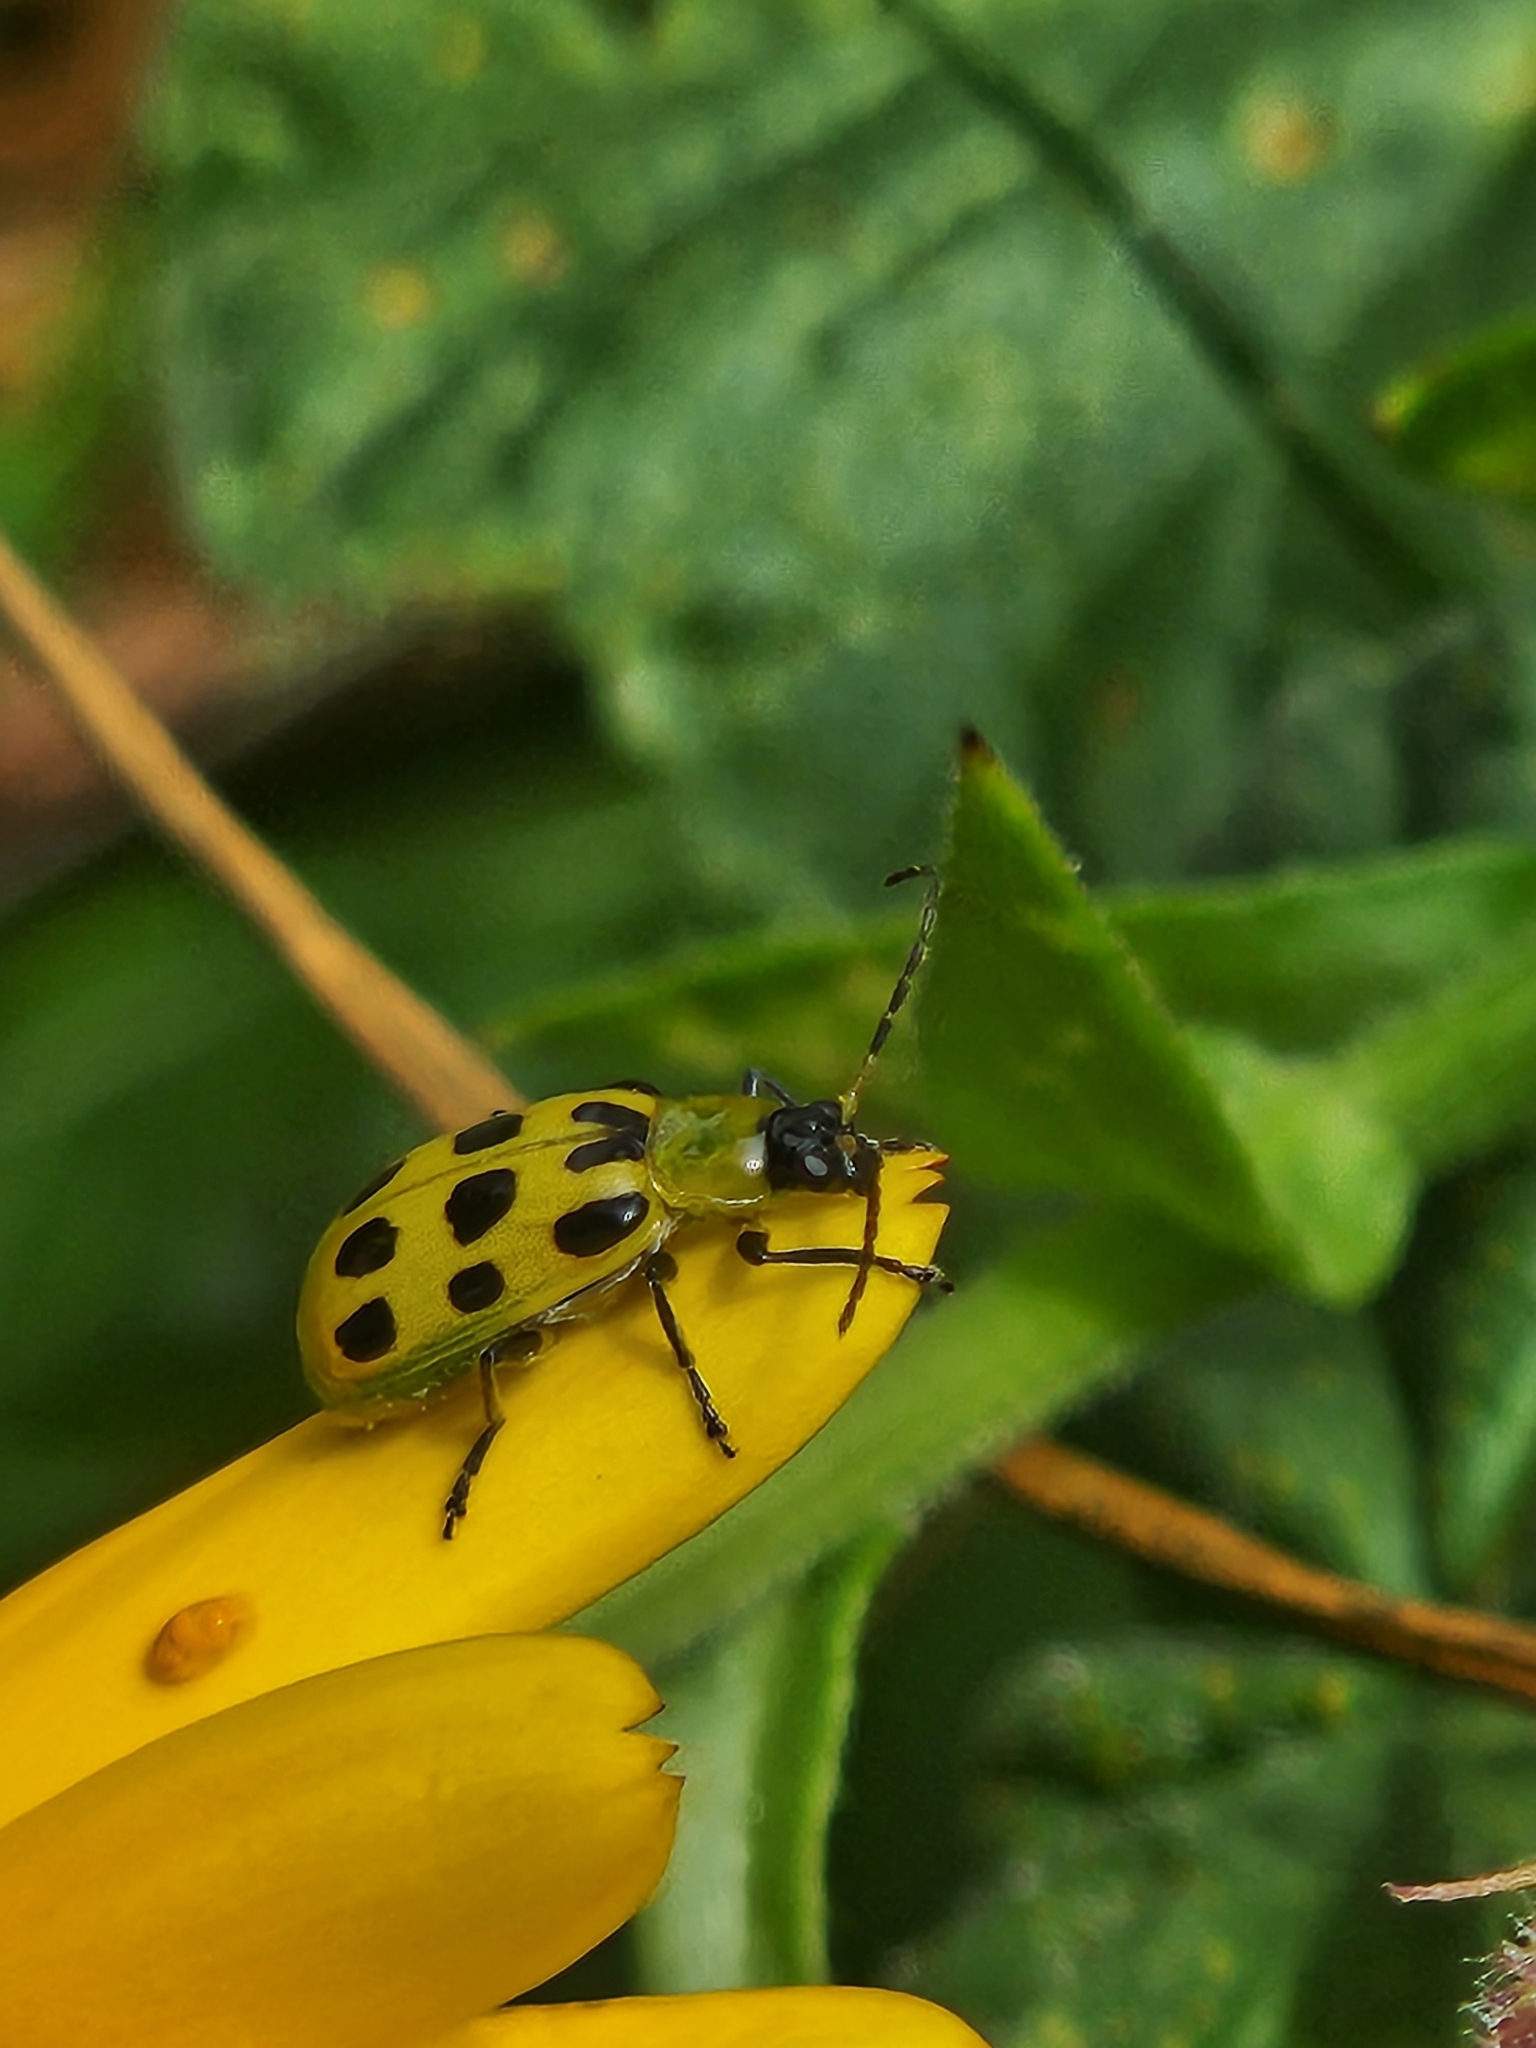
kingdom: Animalia
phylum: Arthropoda
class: Insecta
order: Coleoptera
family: Chrysomelidae
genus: Diabrotica
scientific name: Diabrotica undecimpunctata
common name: Spotted cucumber beetle
